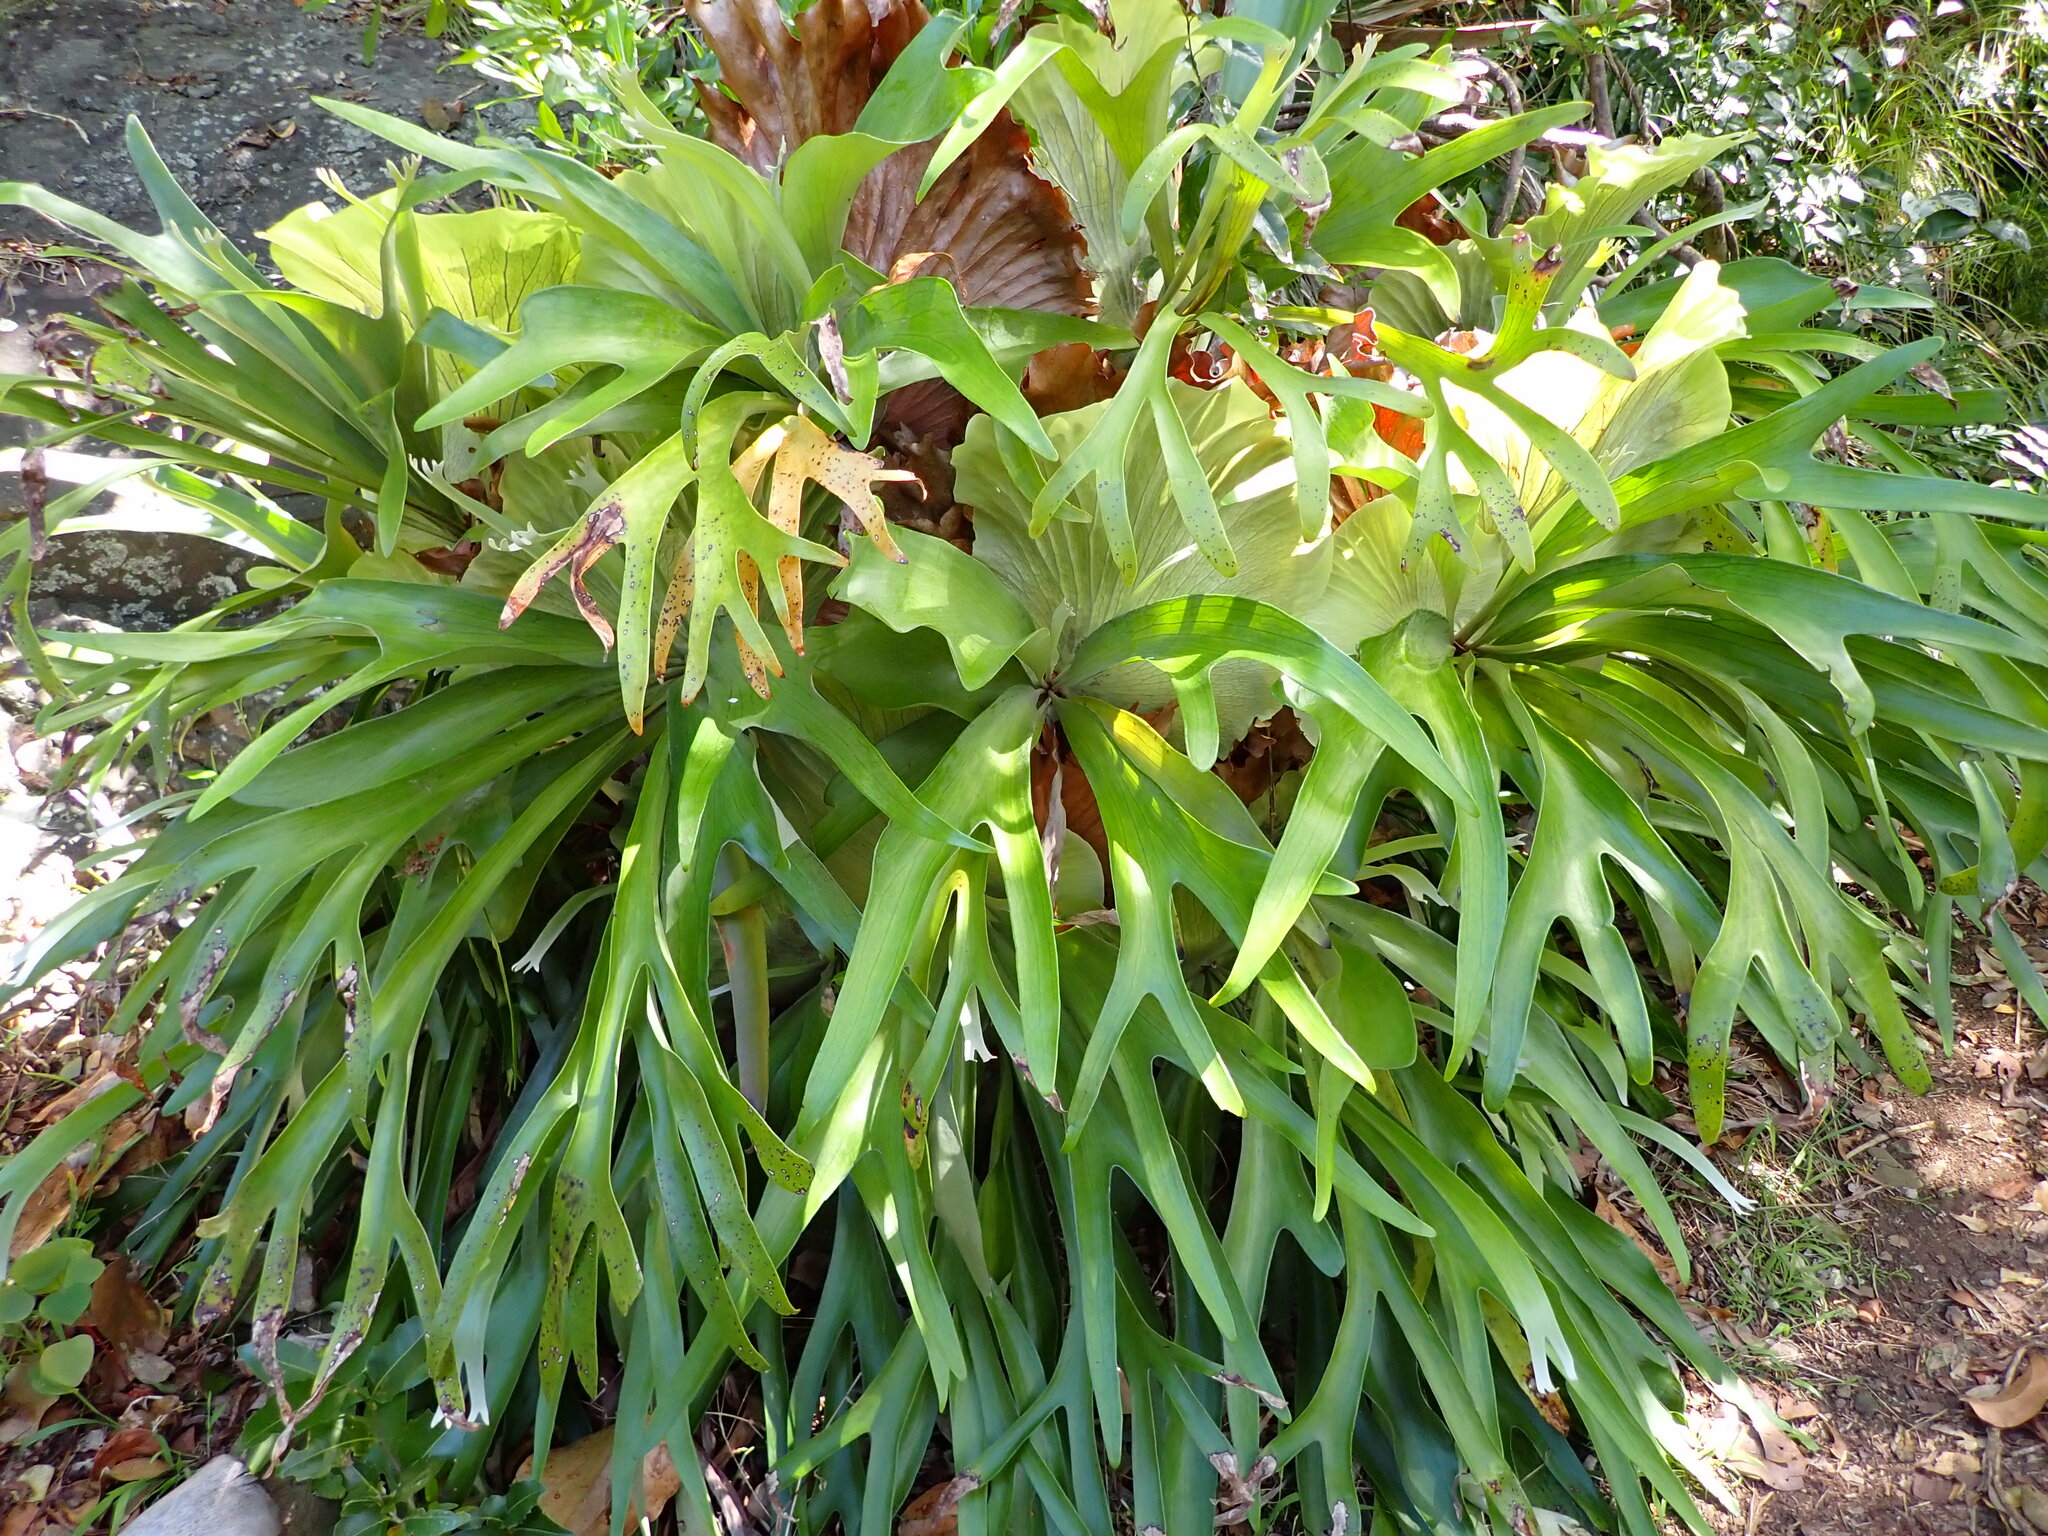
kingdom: Plantae
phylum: Tracheophyta
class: Polypodiopsida
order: Polypodiales
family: Polypodiaceae
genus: Platycerium
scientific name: Platycerium bifurcatum
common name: Elkhorn fern
